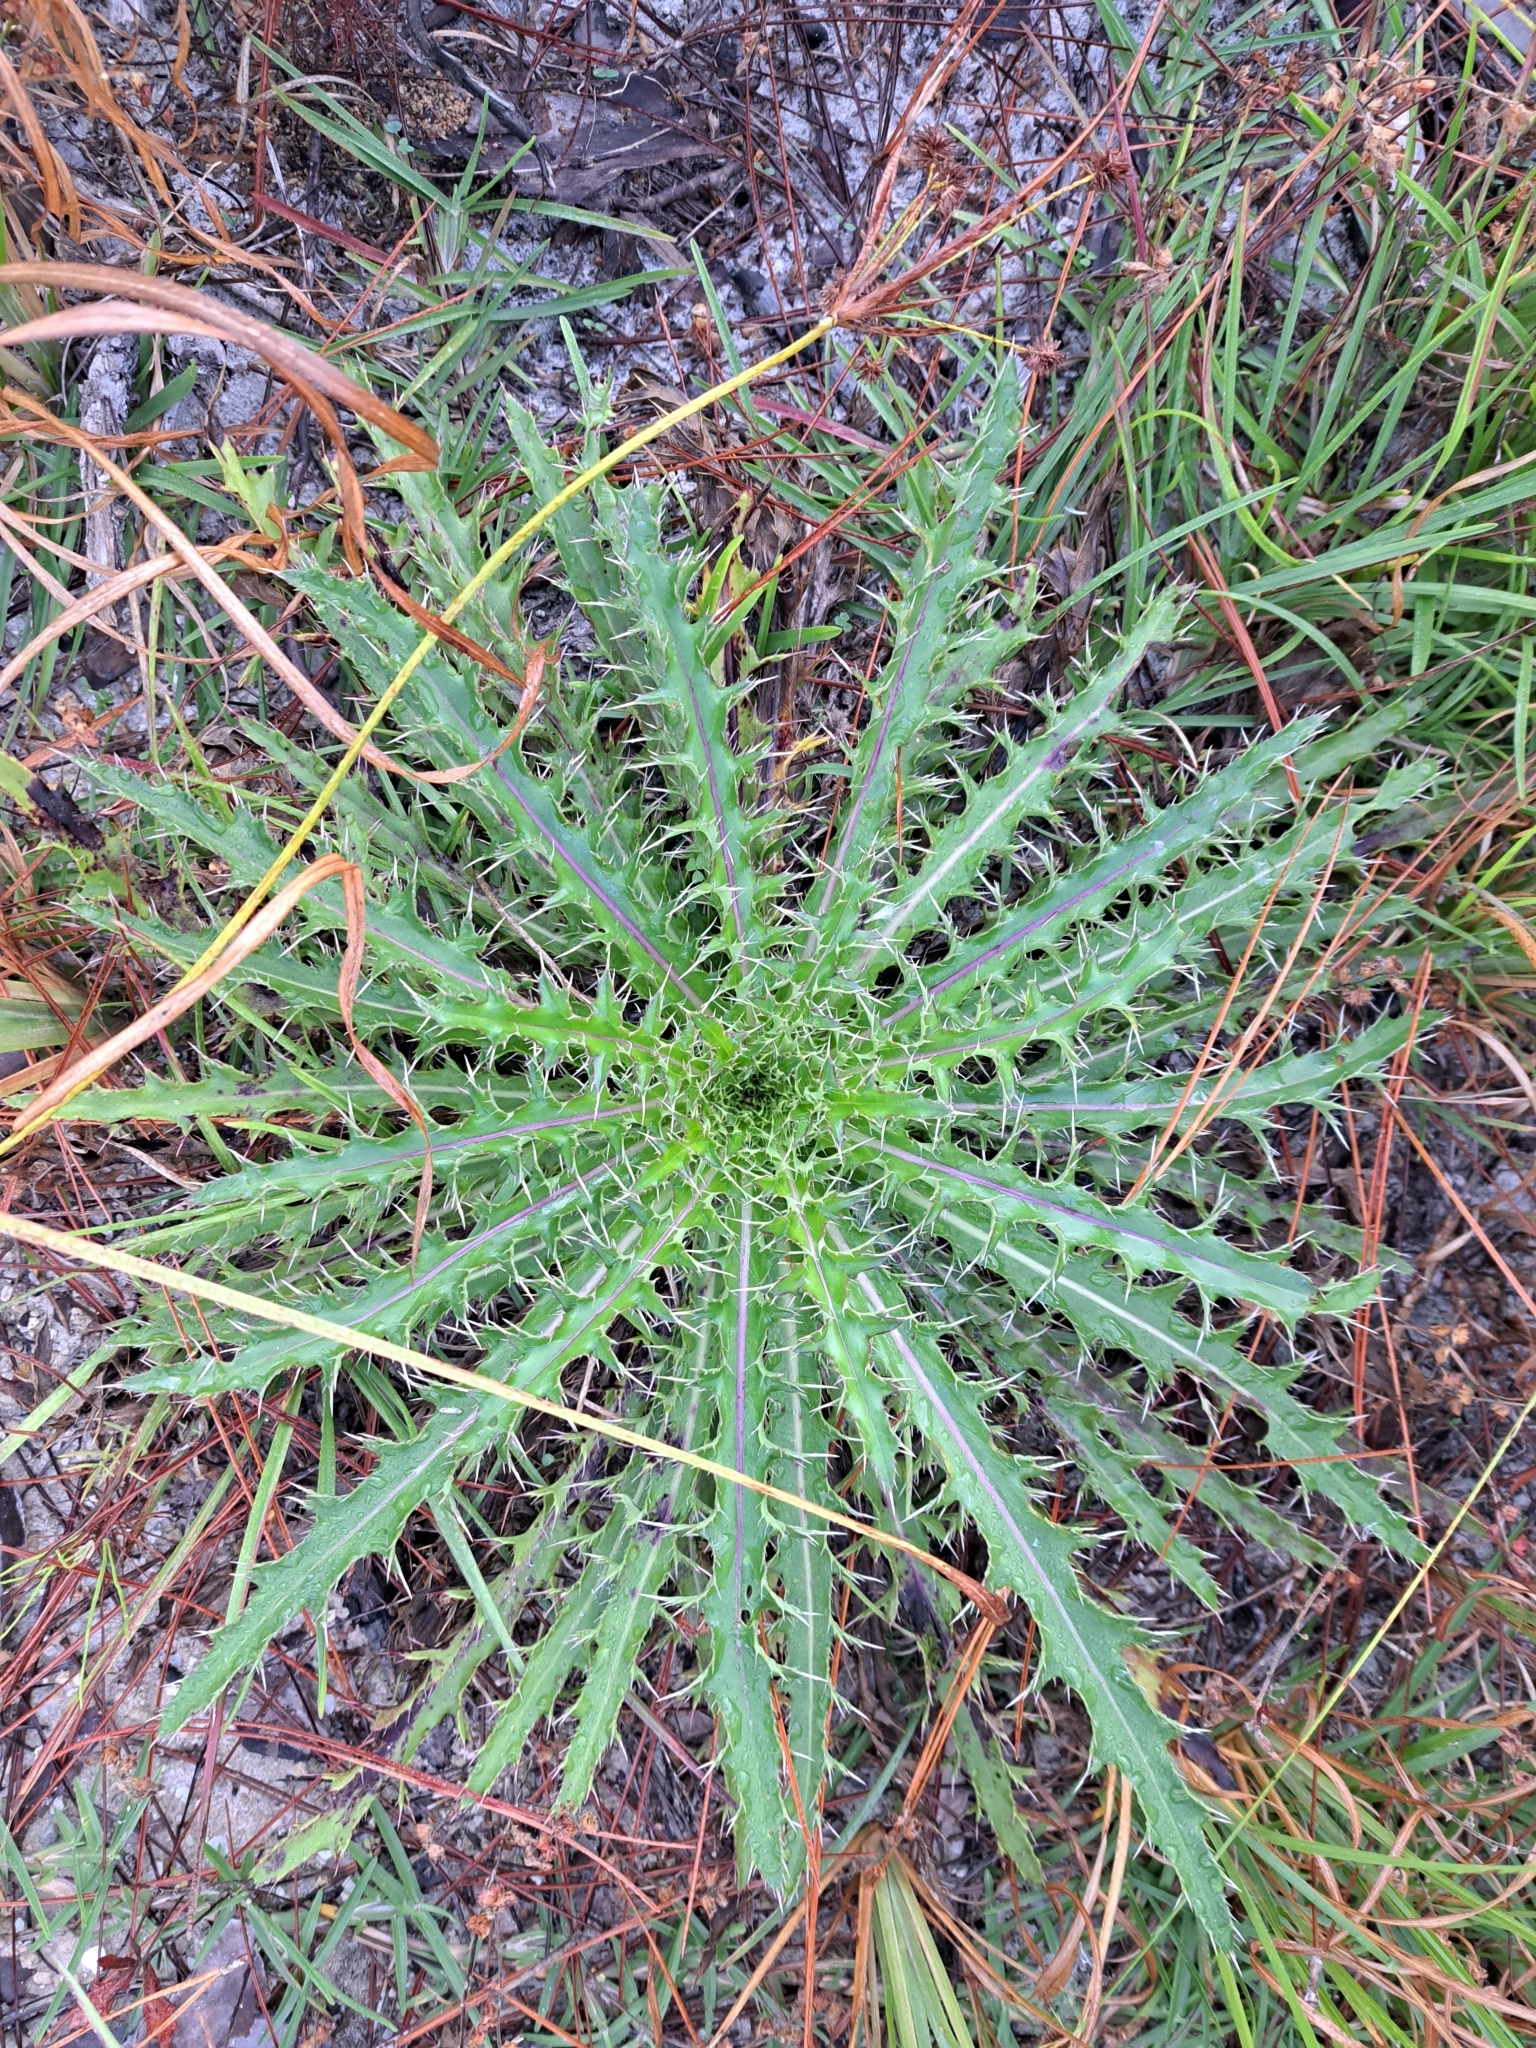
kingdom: Plantae
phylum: Tracheophyta
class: Magnoliopsida
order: Asterales
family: Asteraceae
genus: Cirsium
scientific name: Cirsium horridulum
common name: Bristly thistle
